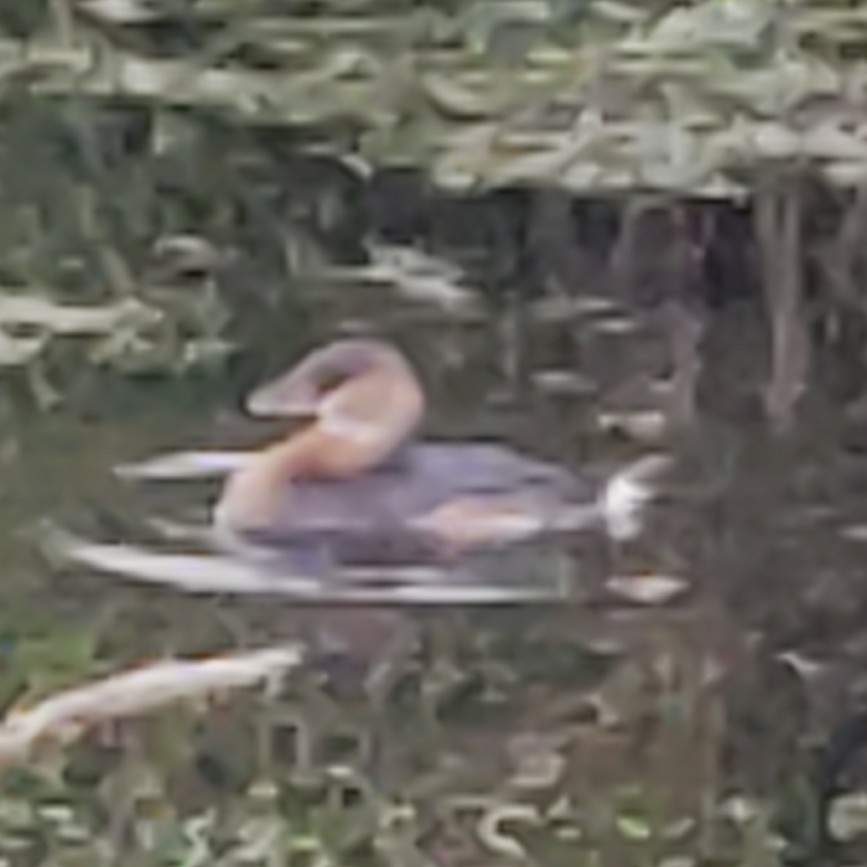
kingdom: Animalia
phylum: Chordata
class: Aves
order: Podicipediformes
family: Podicipedidae
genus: Podilymbus
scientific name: Podilymbus podiceps
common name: Pied-billed grebe
